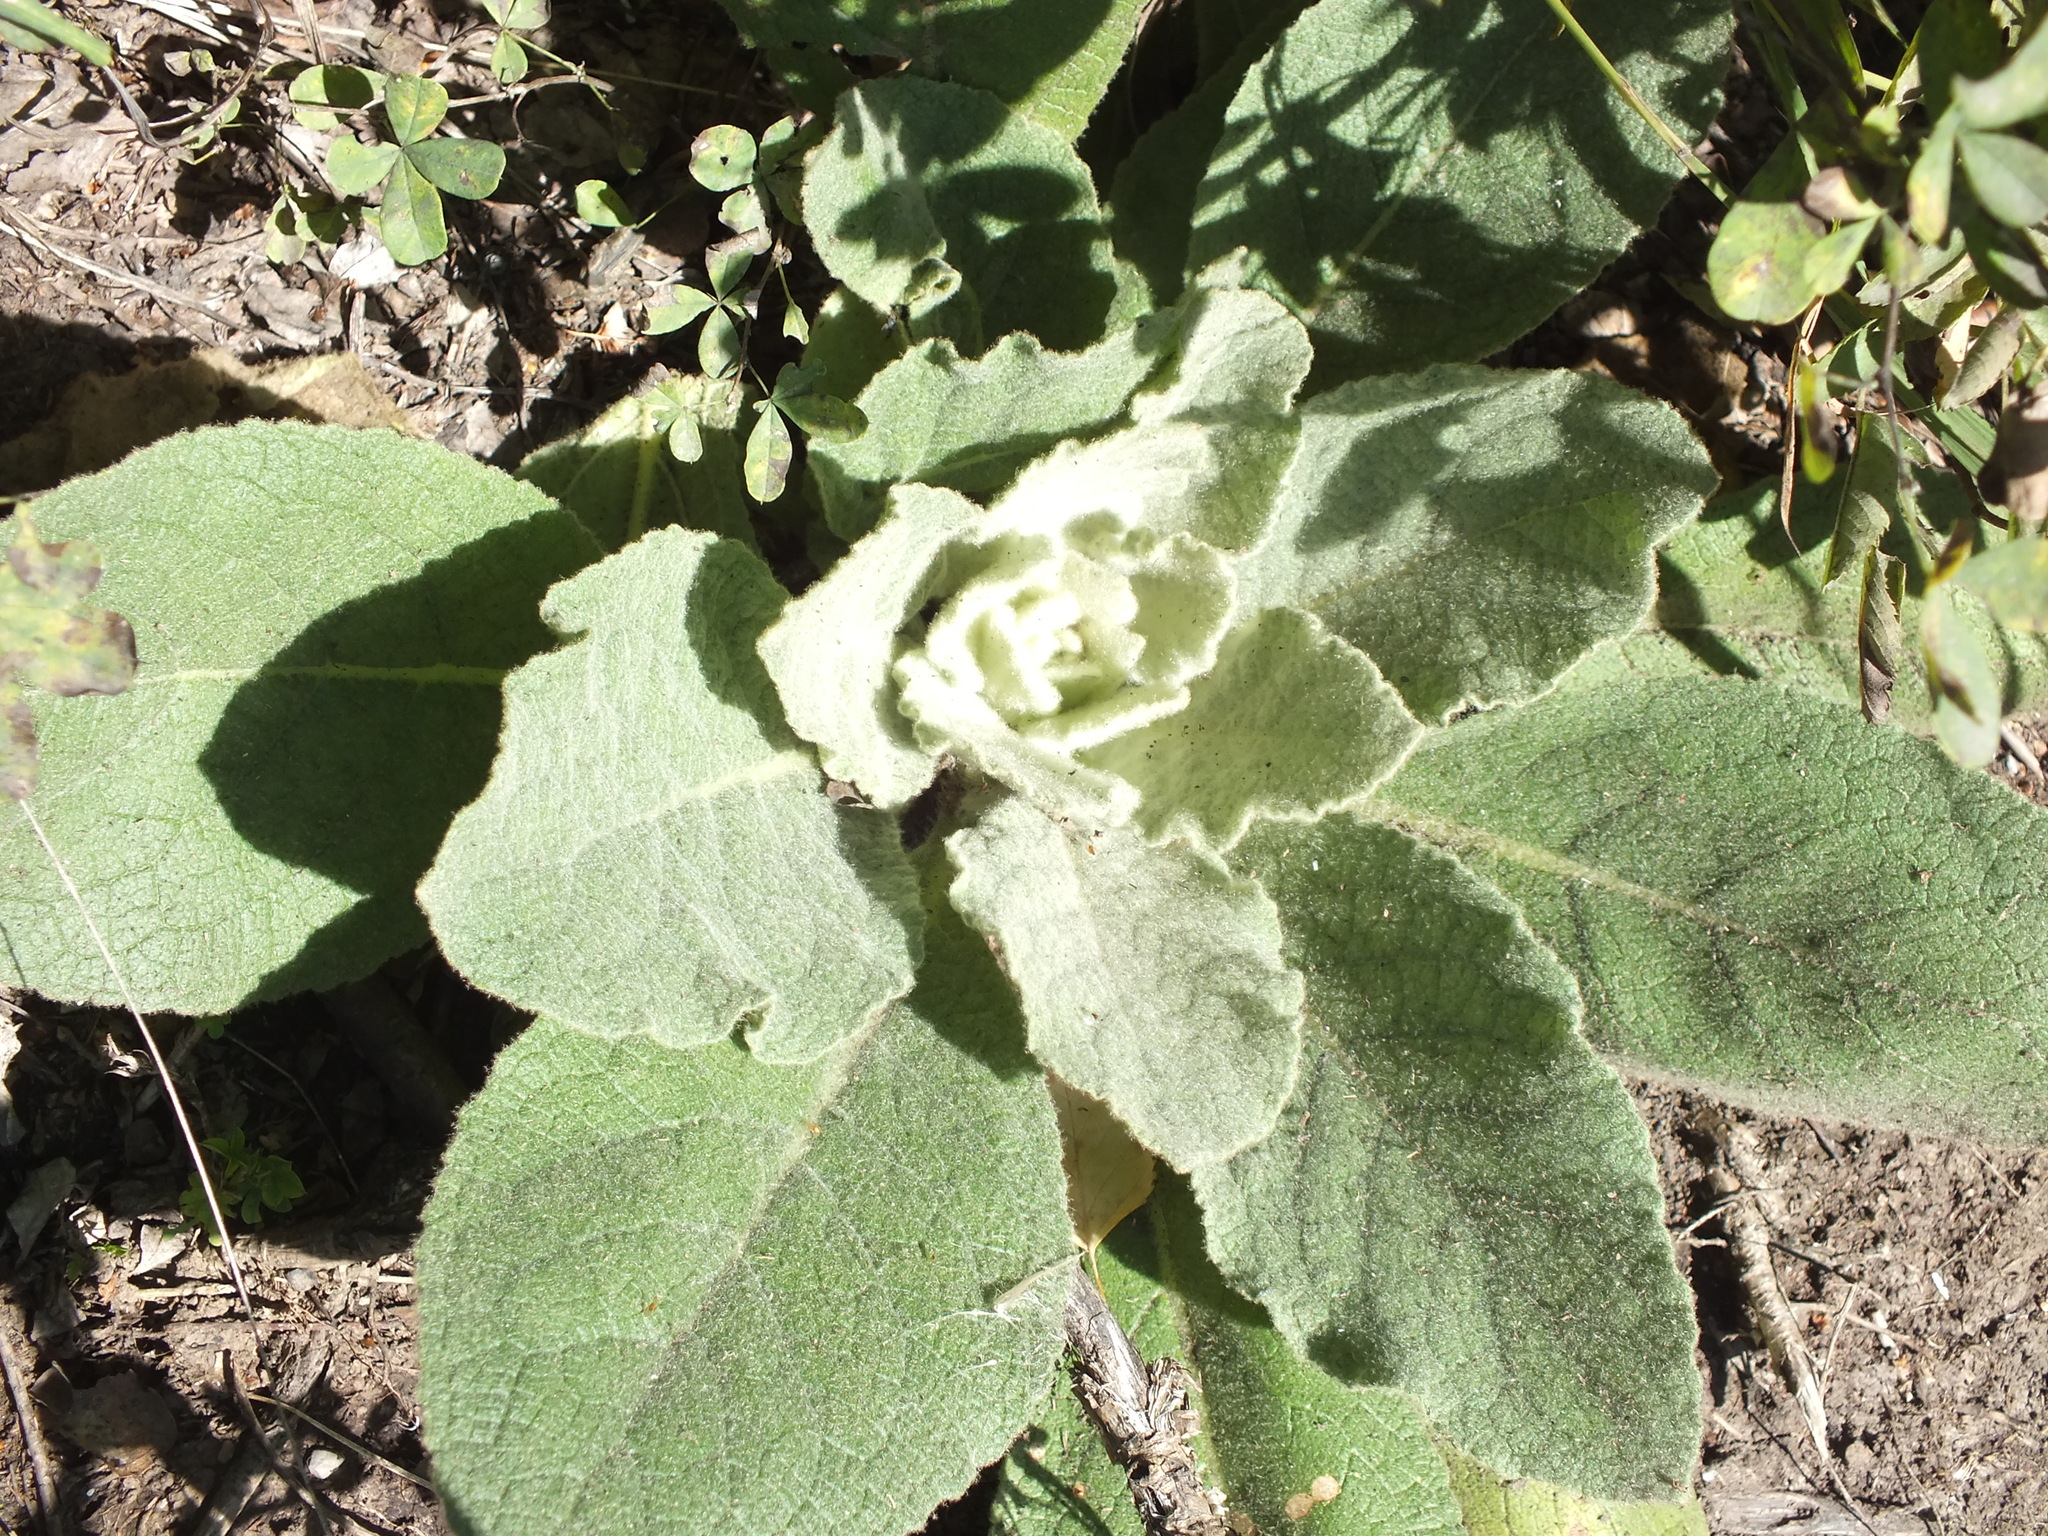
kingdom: Plantae
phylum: Tracheophyta
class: Magnoliopsida
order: Lamiales
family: Scrophulariaceae
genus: Verbascum
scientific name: Verbascum thapsus
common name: Common mullein
